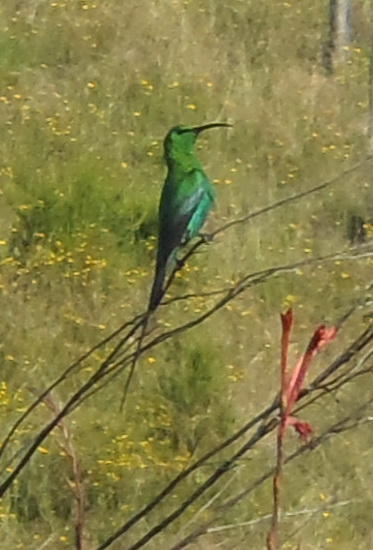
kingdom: Animalia
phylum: Chordata
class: Aves
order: Passeriformes
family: Nectariniidae
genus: Nectarinia
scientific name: Nectarinia famosa
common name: Malachite sunbird
